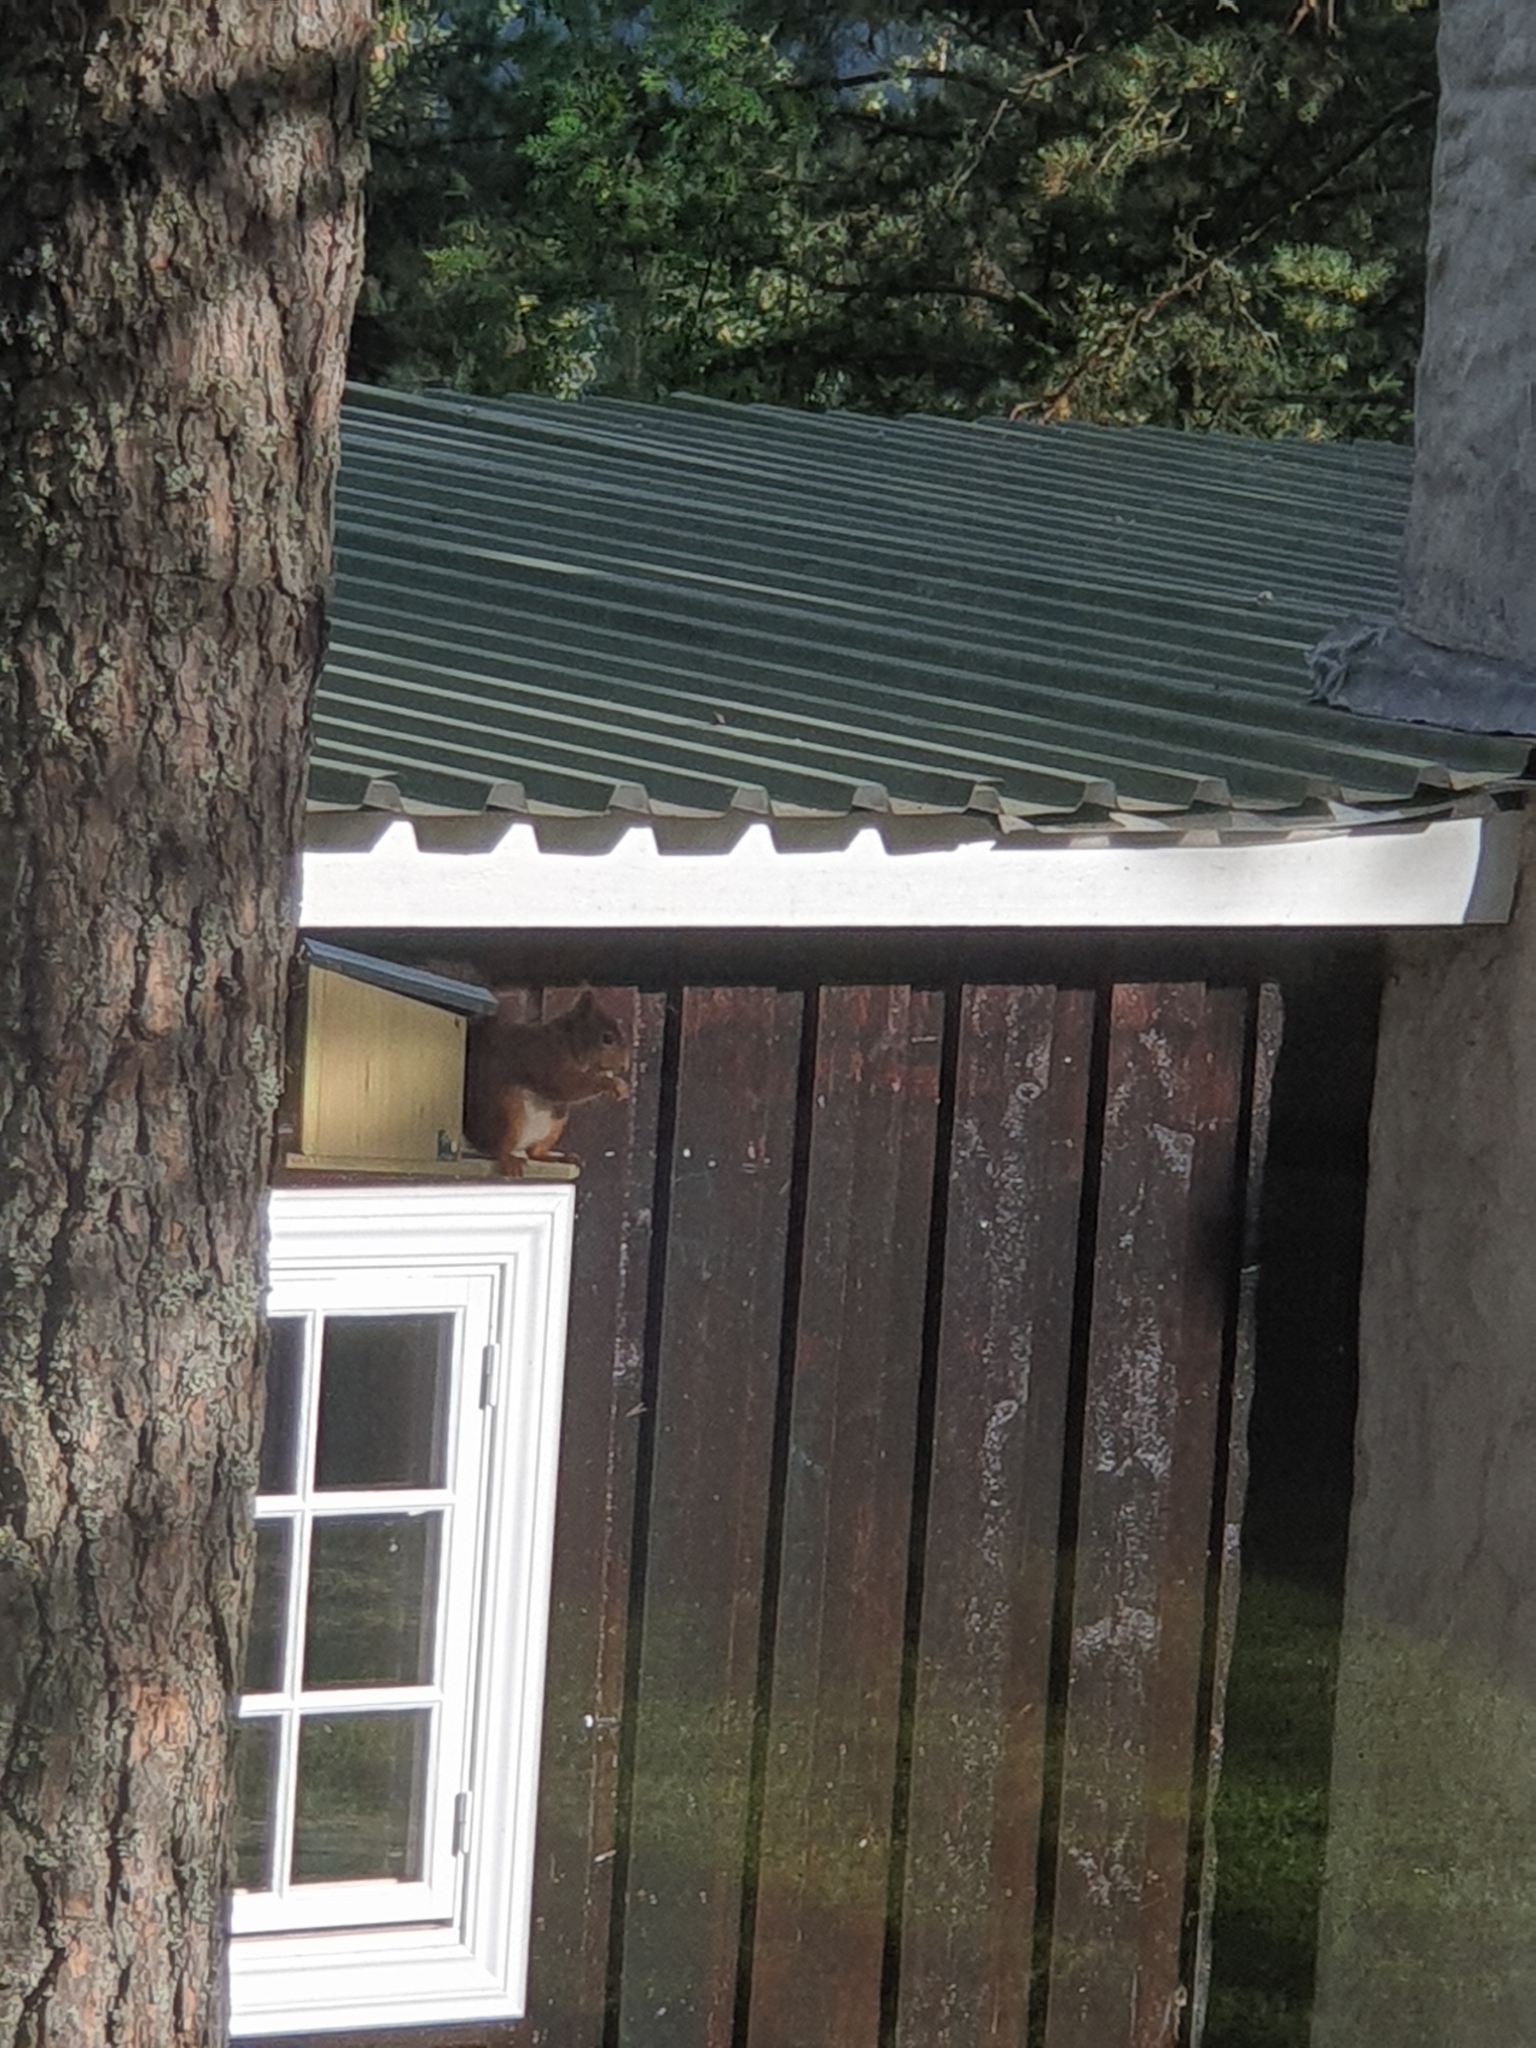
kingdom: Animalia
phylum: Chordata
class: Mammalia
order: Rodentia
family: Sciuridae
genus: Sciurus
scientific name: Sciurus vulgaris
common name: Eurasian red squirrel
